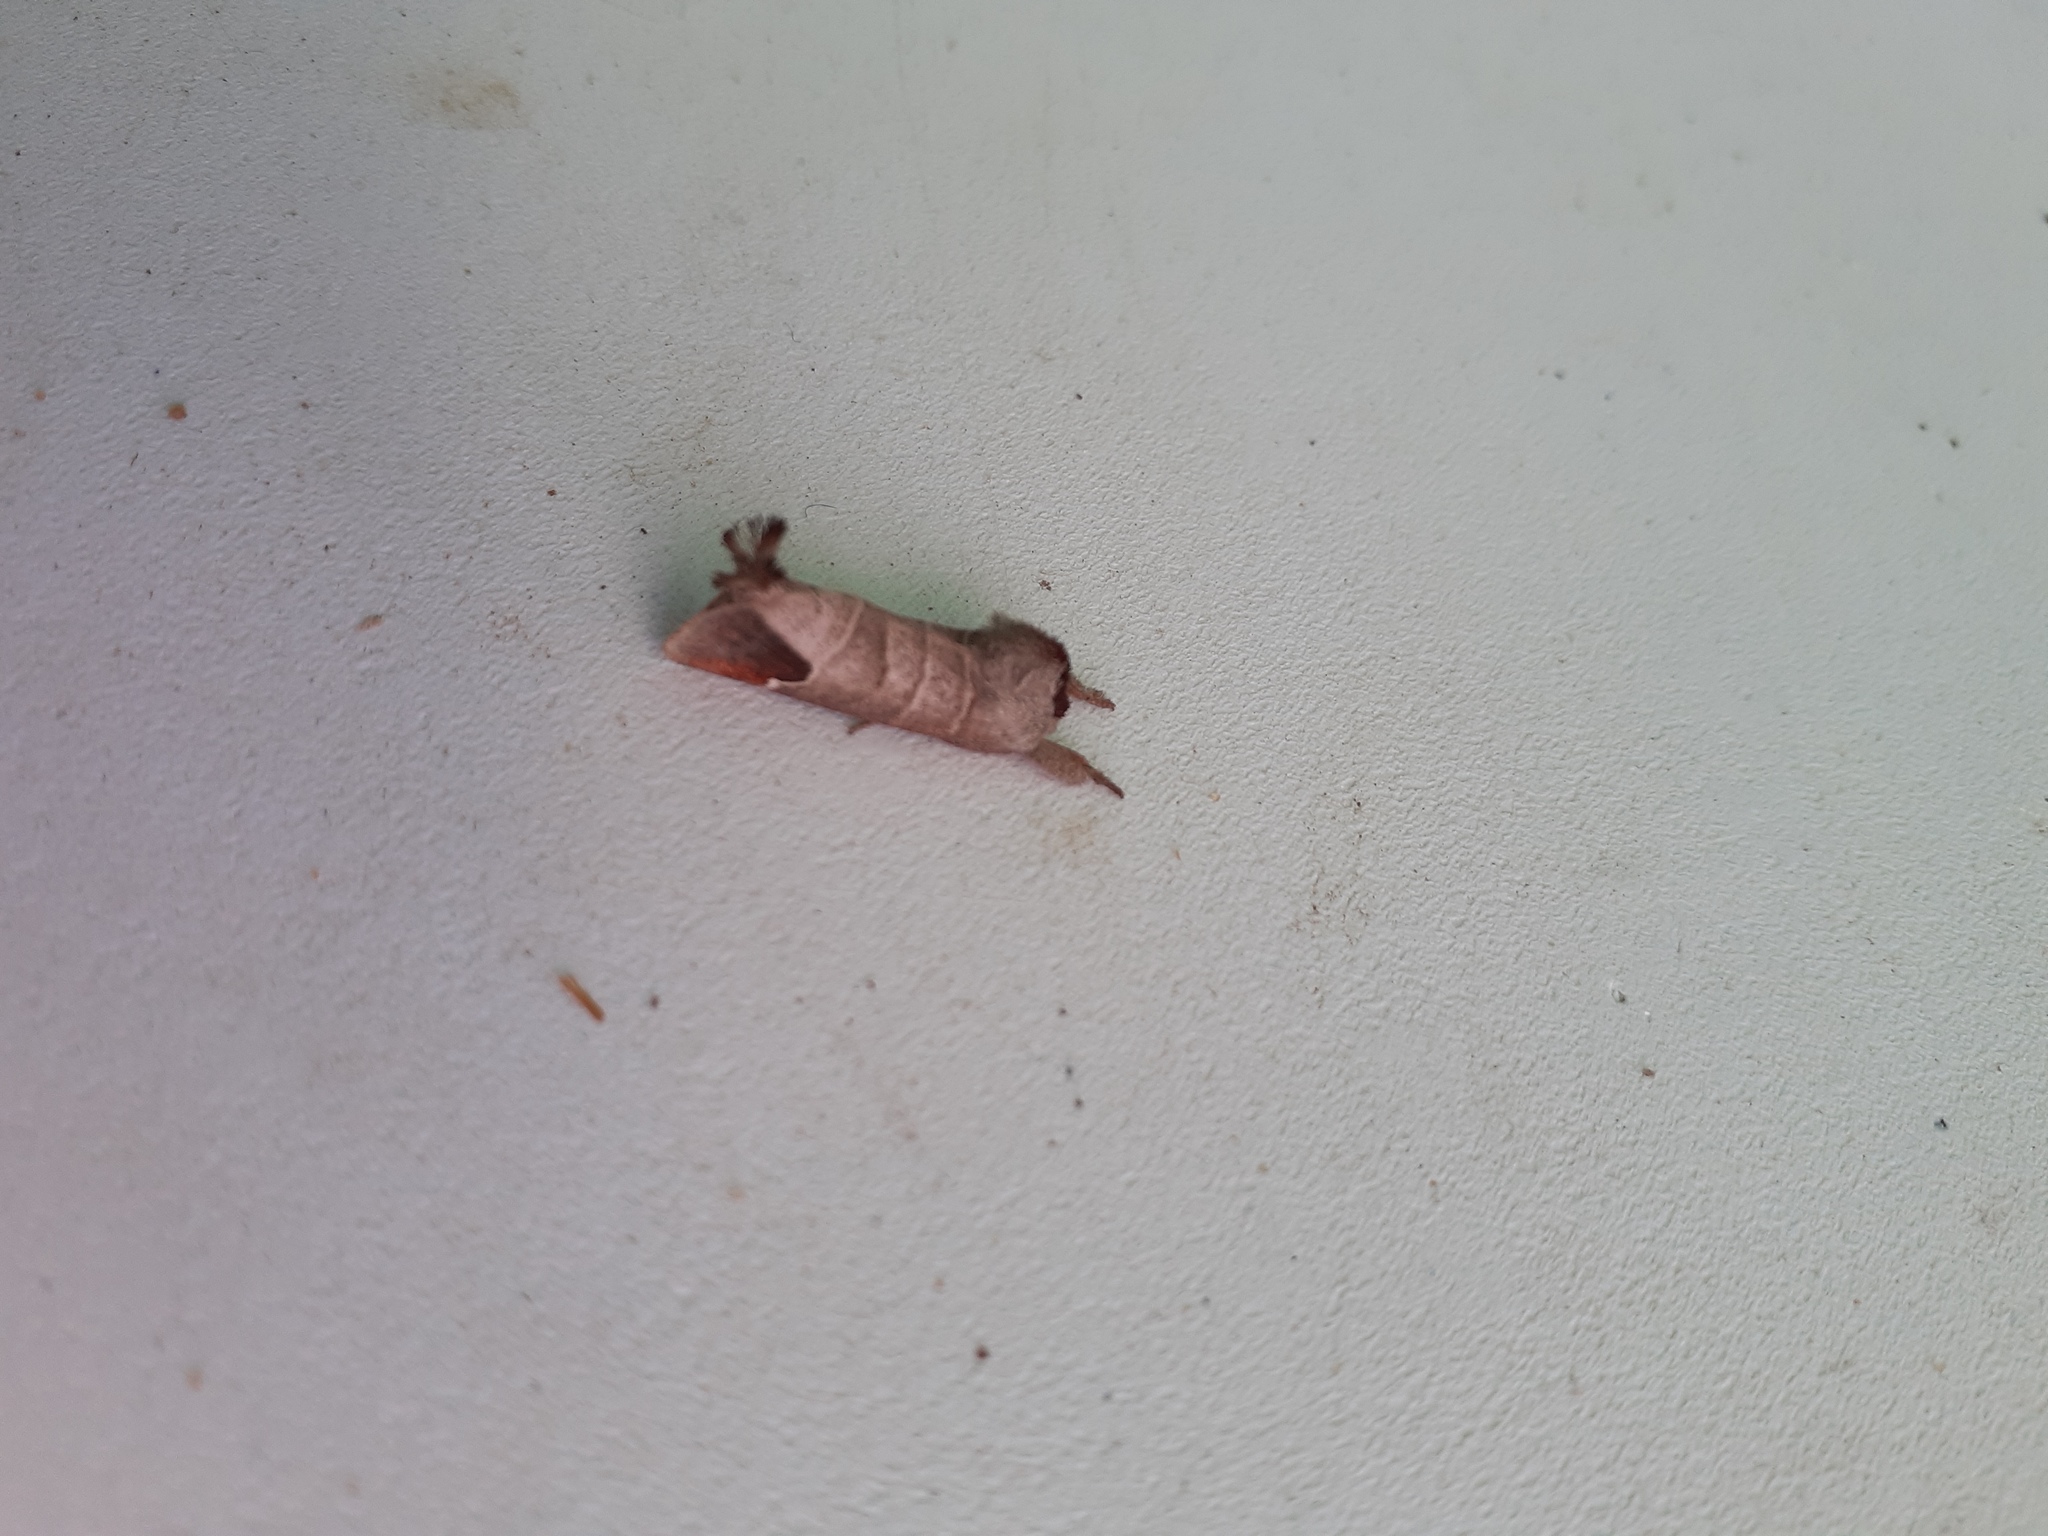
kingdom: Animalia
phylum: Arthropoda
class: Insecta
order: Lepidoptera
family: Notodontidae
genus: Clostera
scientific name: Clostera curtula
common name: Chocolate-tip
